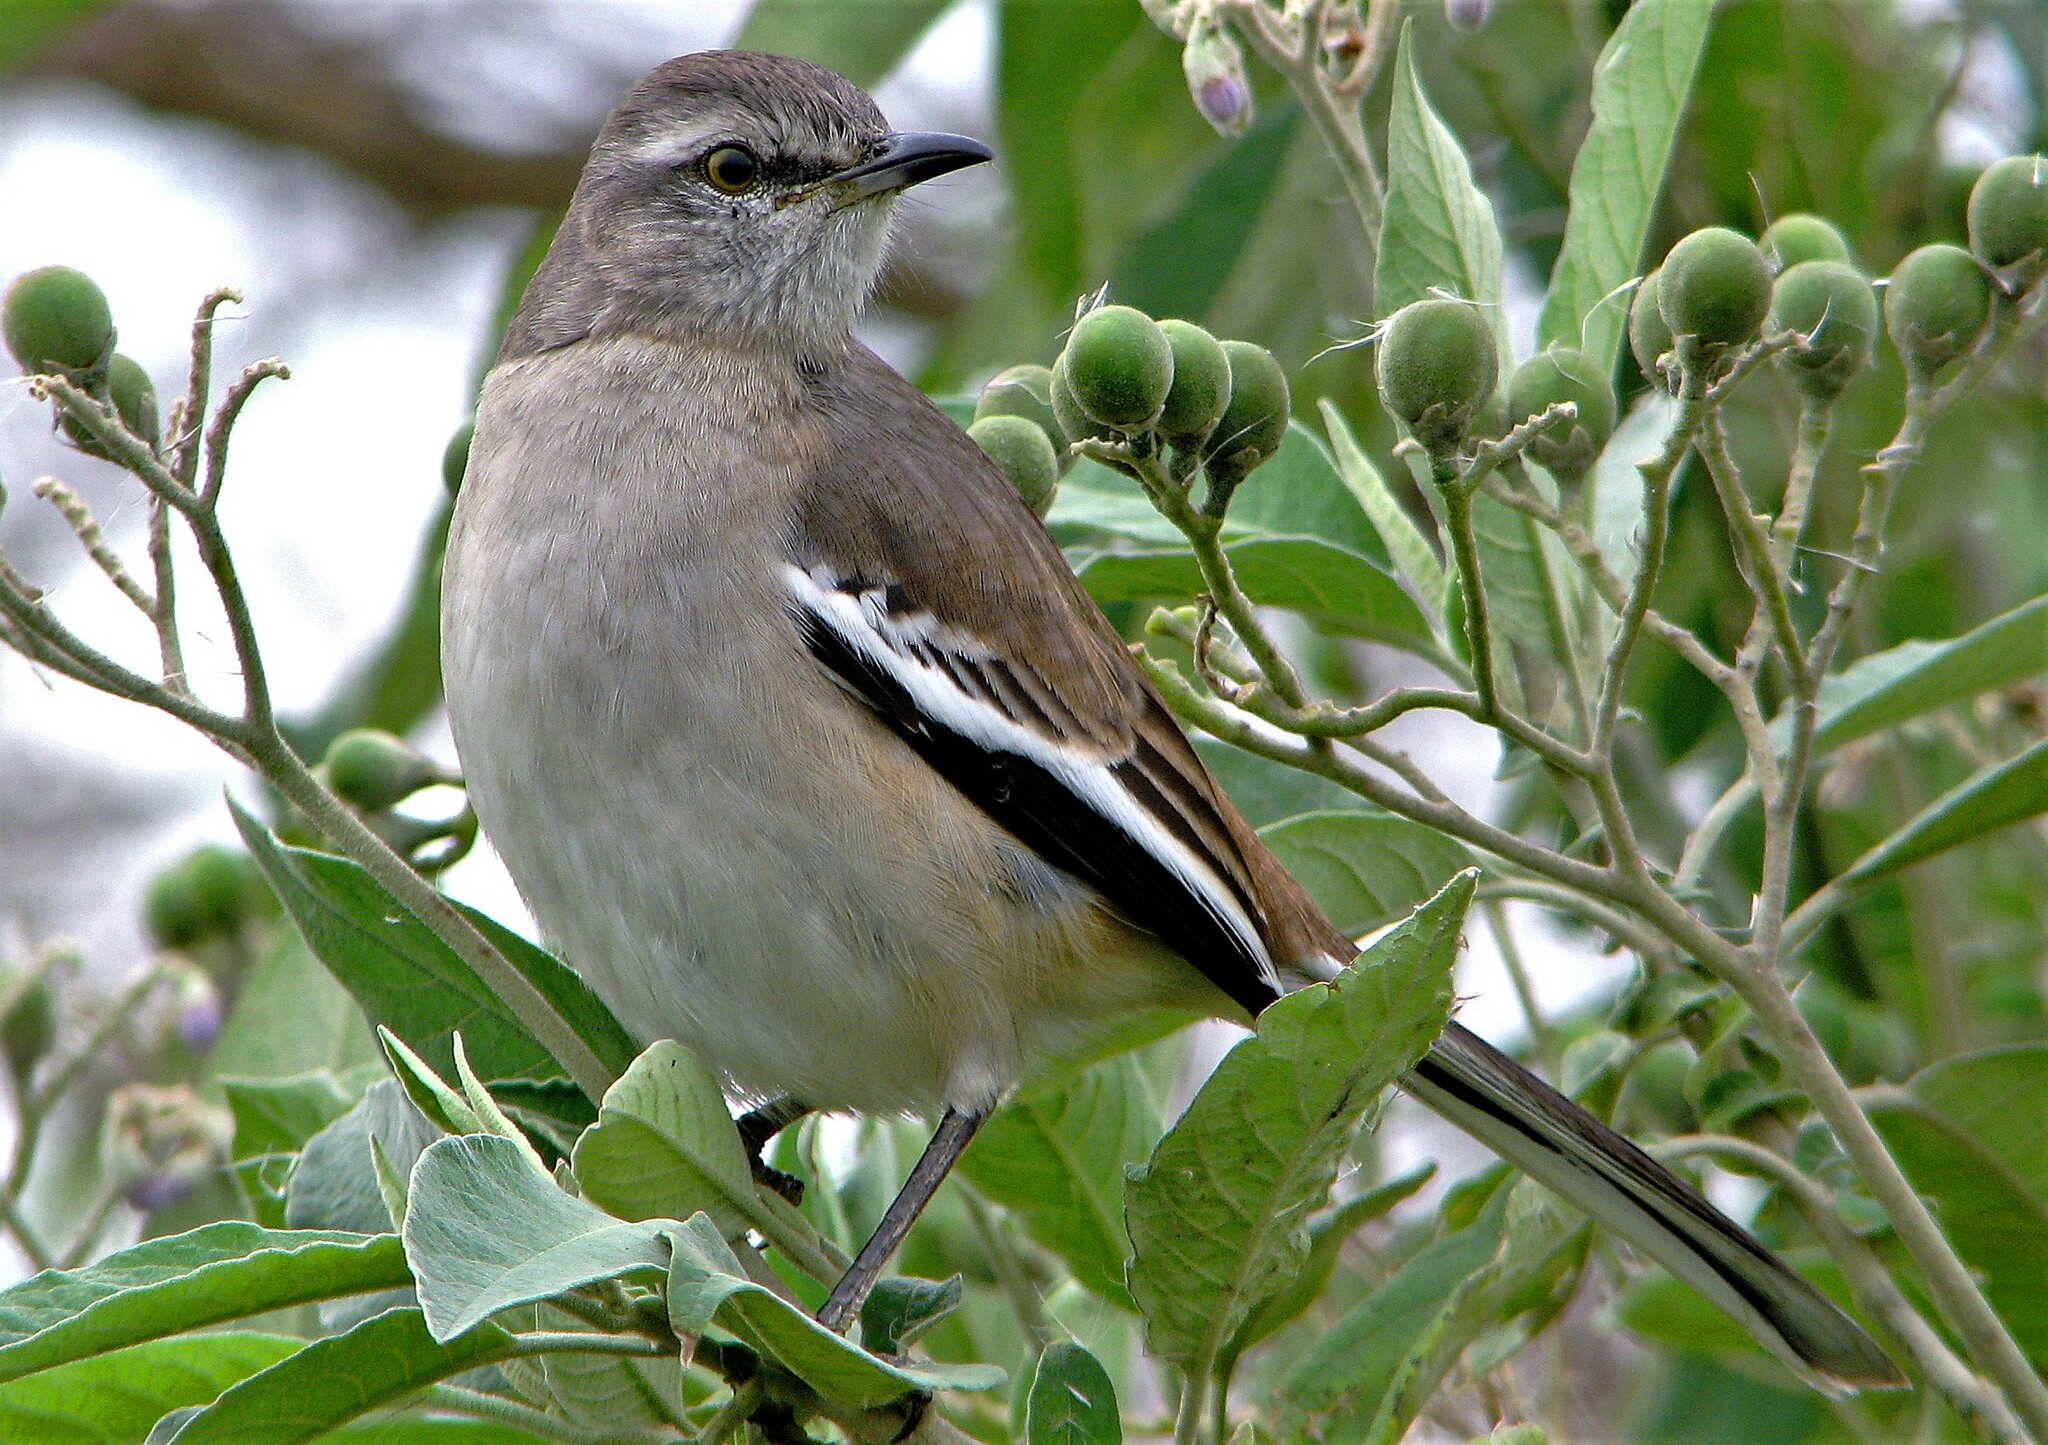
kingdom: Animalia
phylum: Chordata
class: Aves
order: Passeriformes
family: Mimidae
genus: Mimus
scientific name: Mimus triurus
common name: White-banded mockingbird
